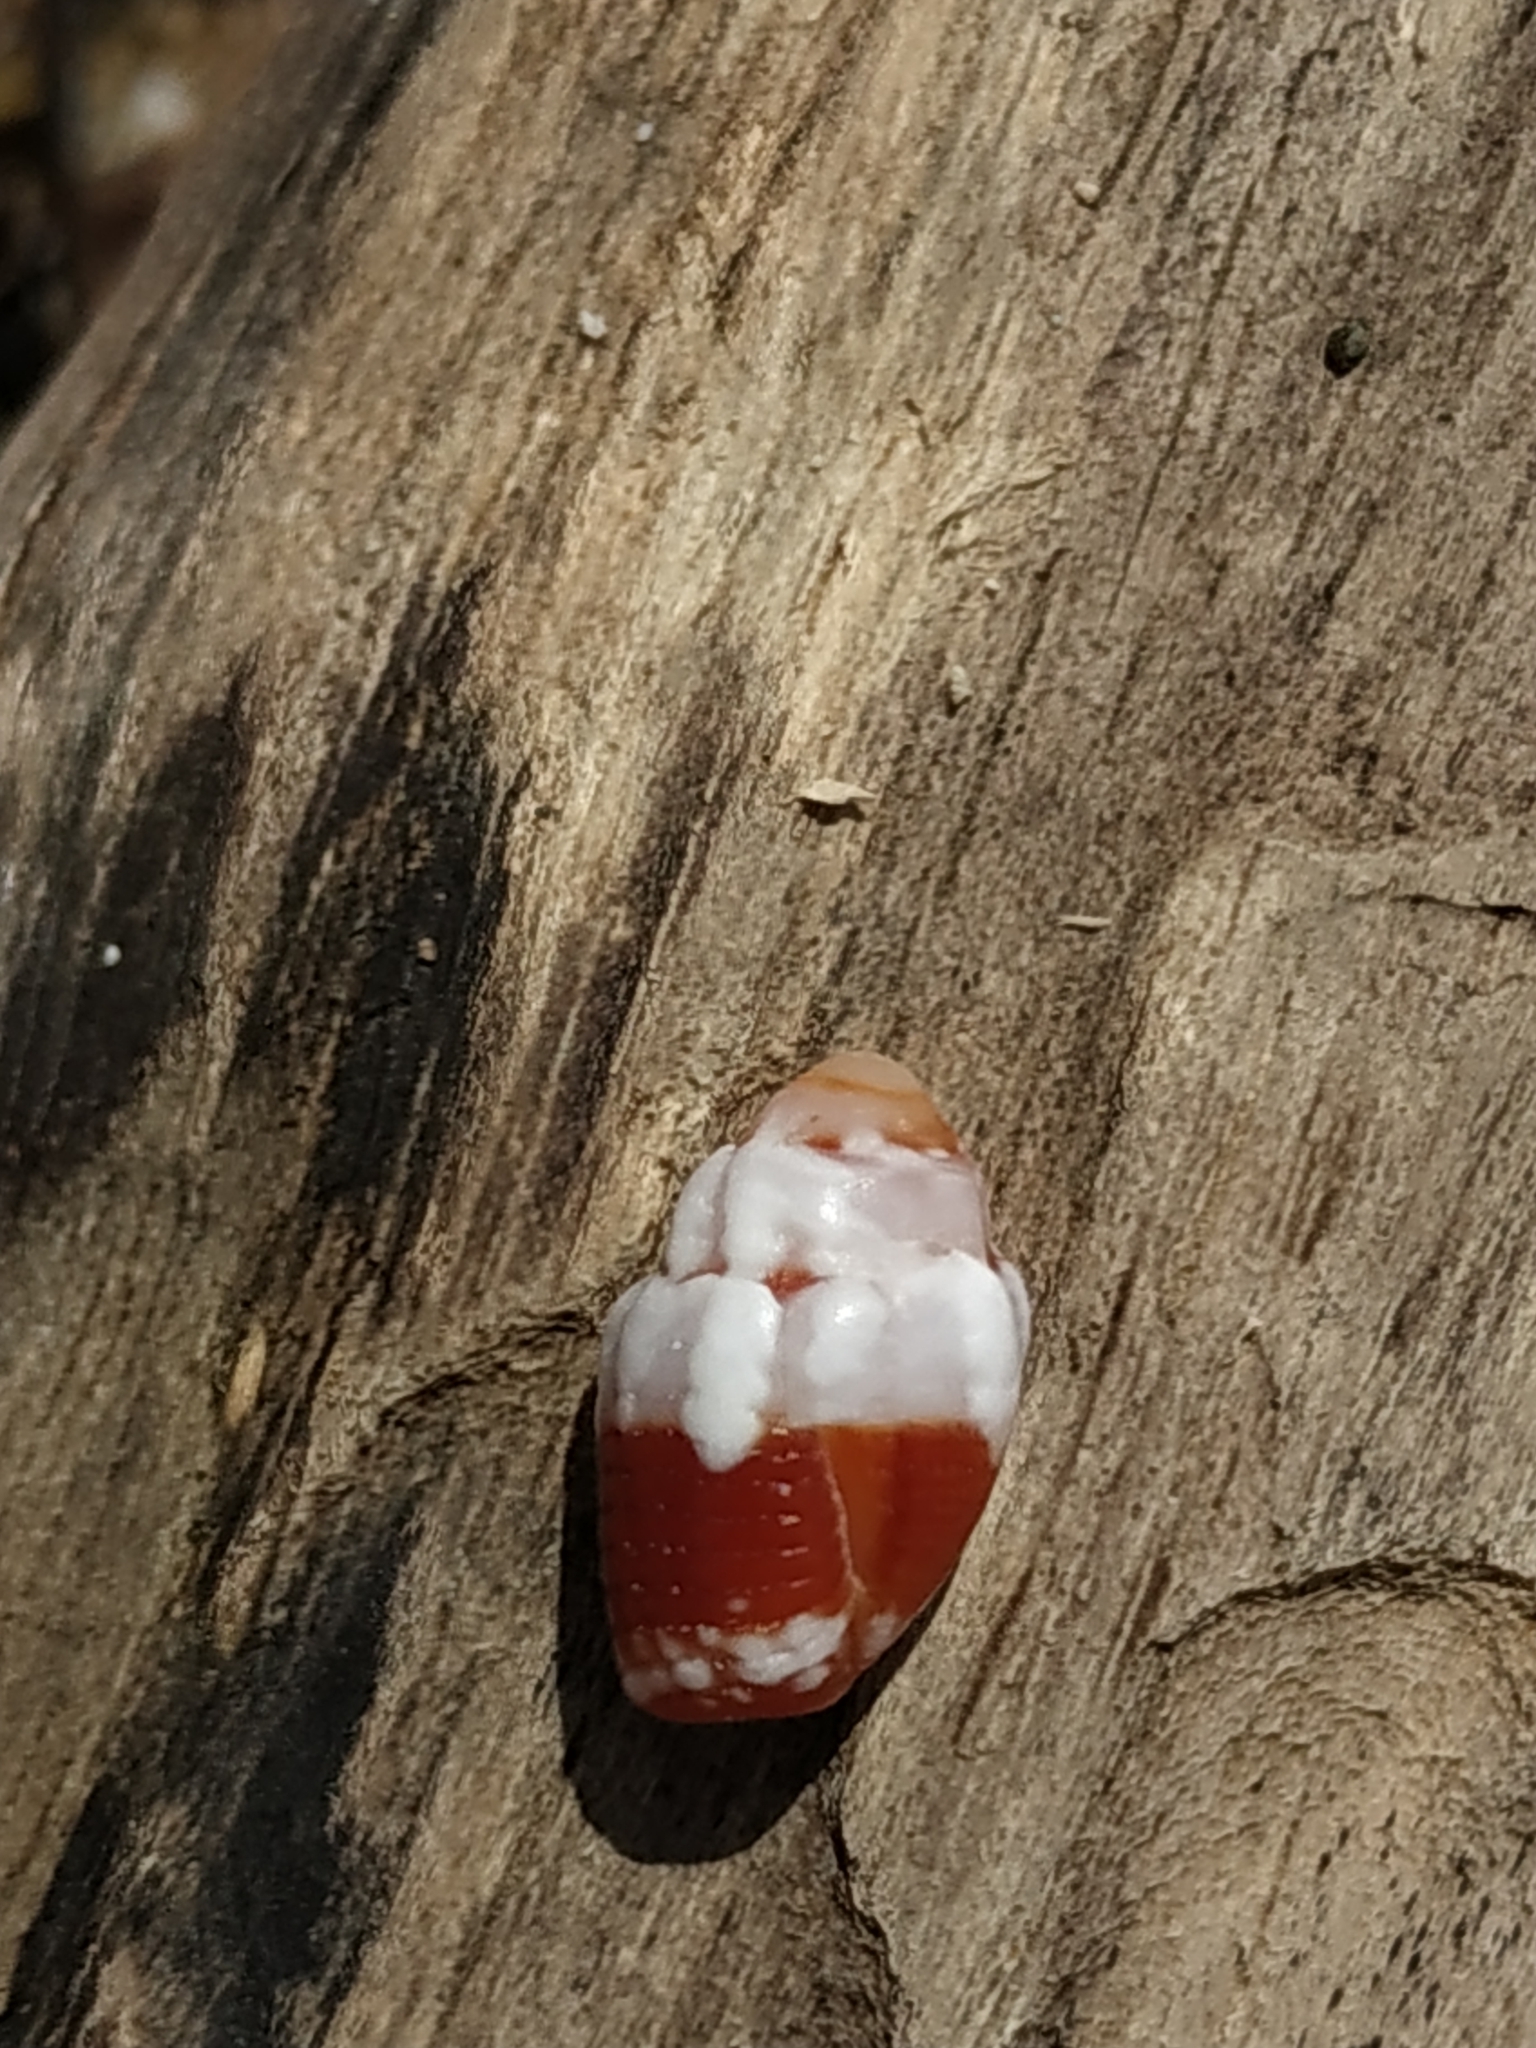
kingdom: Animalia
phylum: Mollusca
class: Gastropoda
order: Neogastropoda
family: Costellariidae
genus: Orphanopusia
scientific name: Orphanopusia patriarchalis
